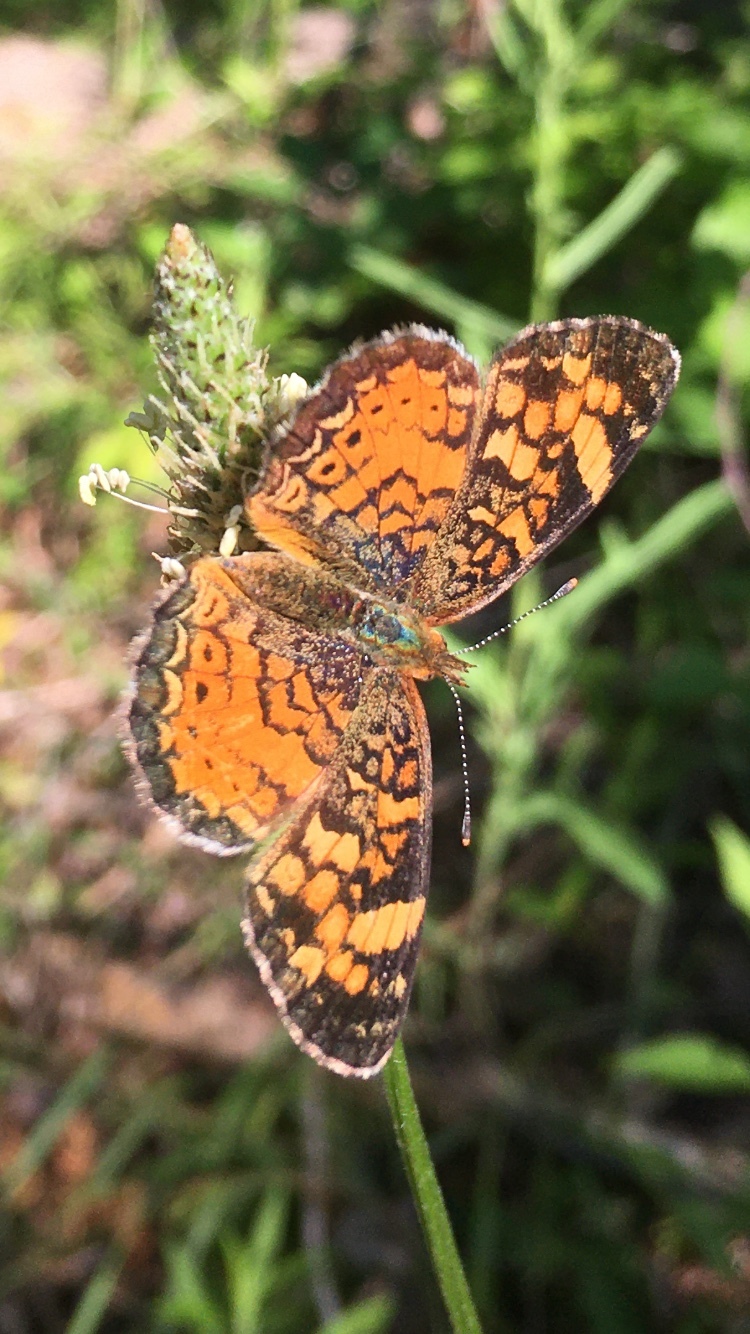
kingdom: Animalia
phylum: Arthropoda
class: Insecta
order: Lepidoptera
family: Nymphalidae
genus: Phyciodes
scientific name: Phyciodes tharos
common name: Pearl crescent
